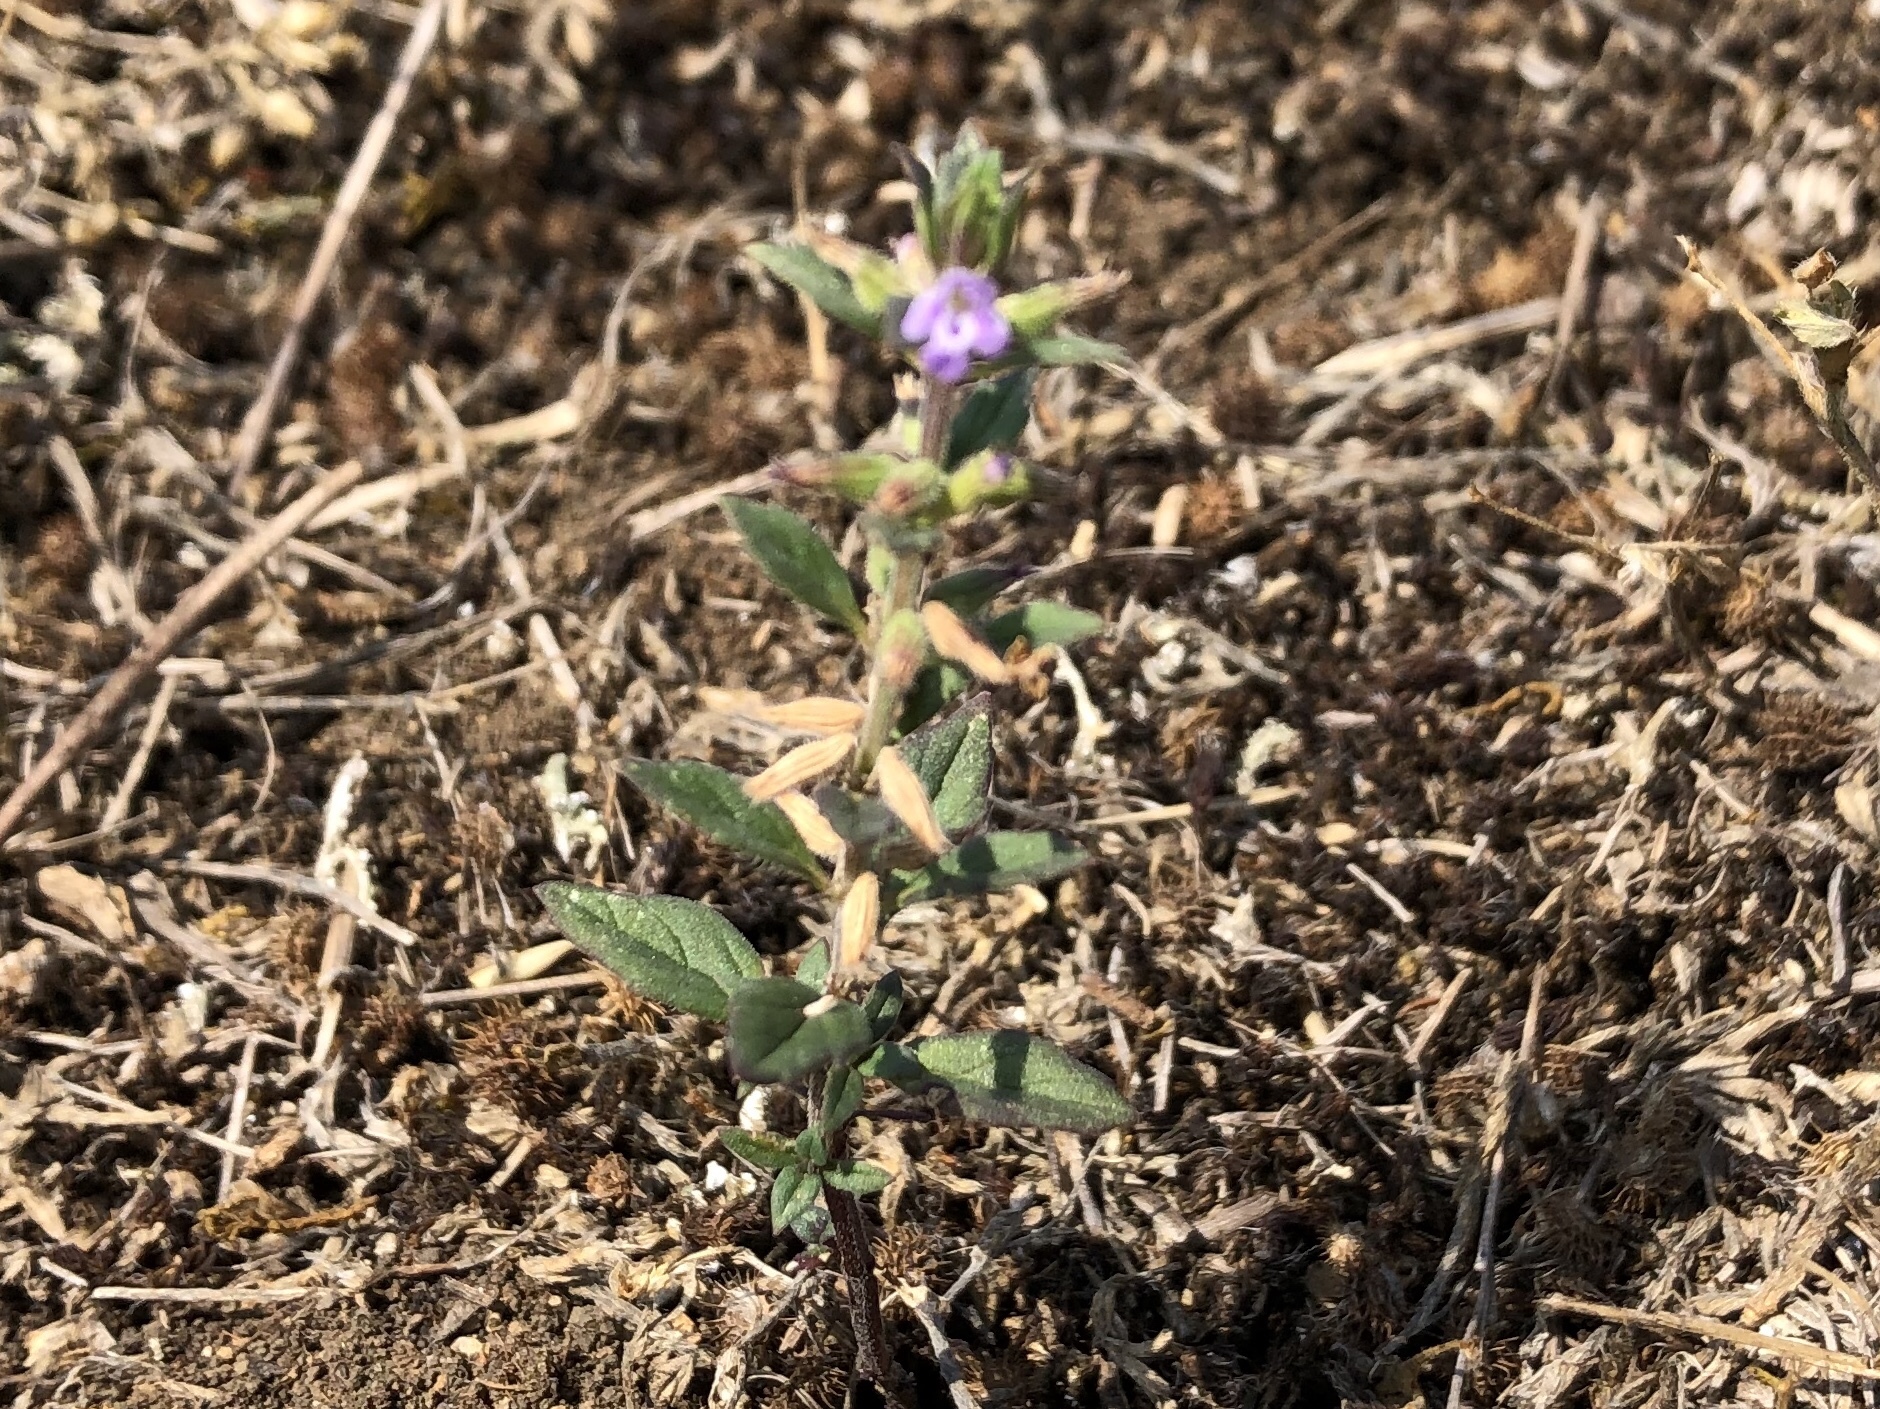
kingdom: Plantae
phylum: Tracheophyta
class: Magnoliopsida
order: Lamiales
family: Lamiaceae
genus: Clinopodium
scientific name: Clinopodium acinos
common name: Basil thyme
